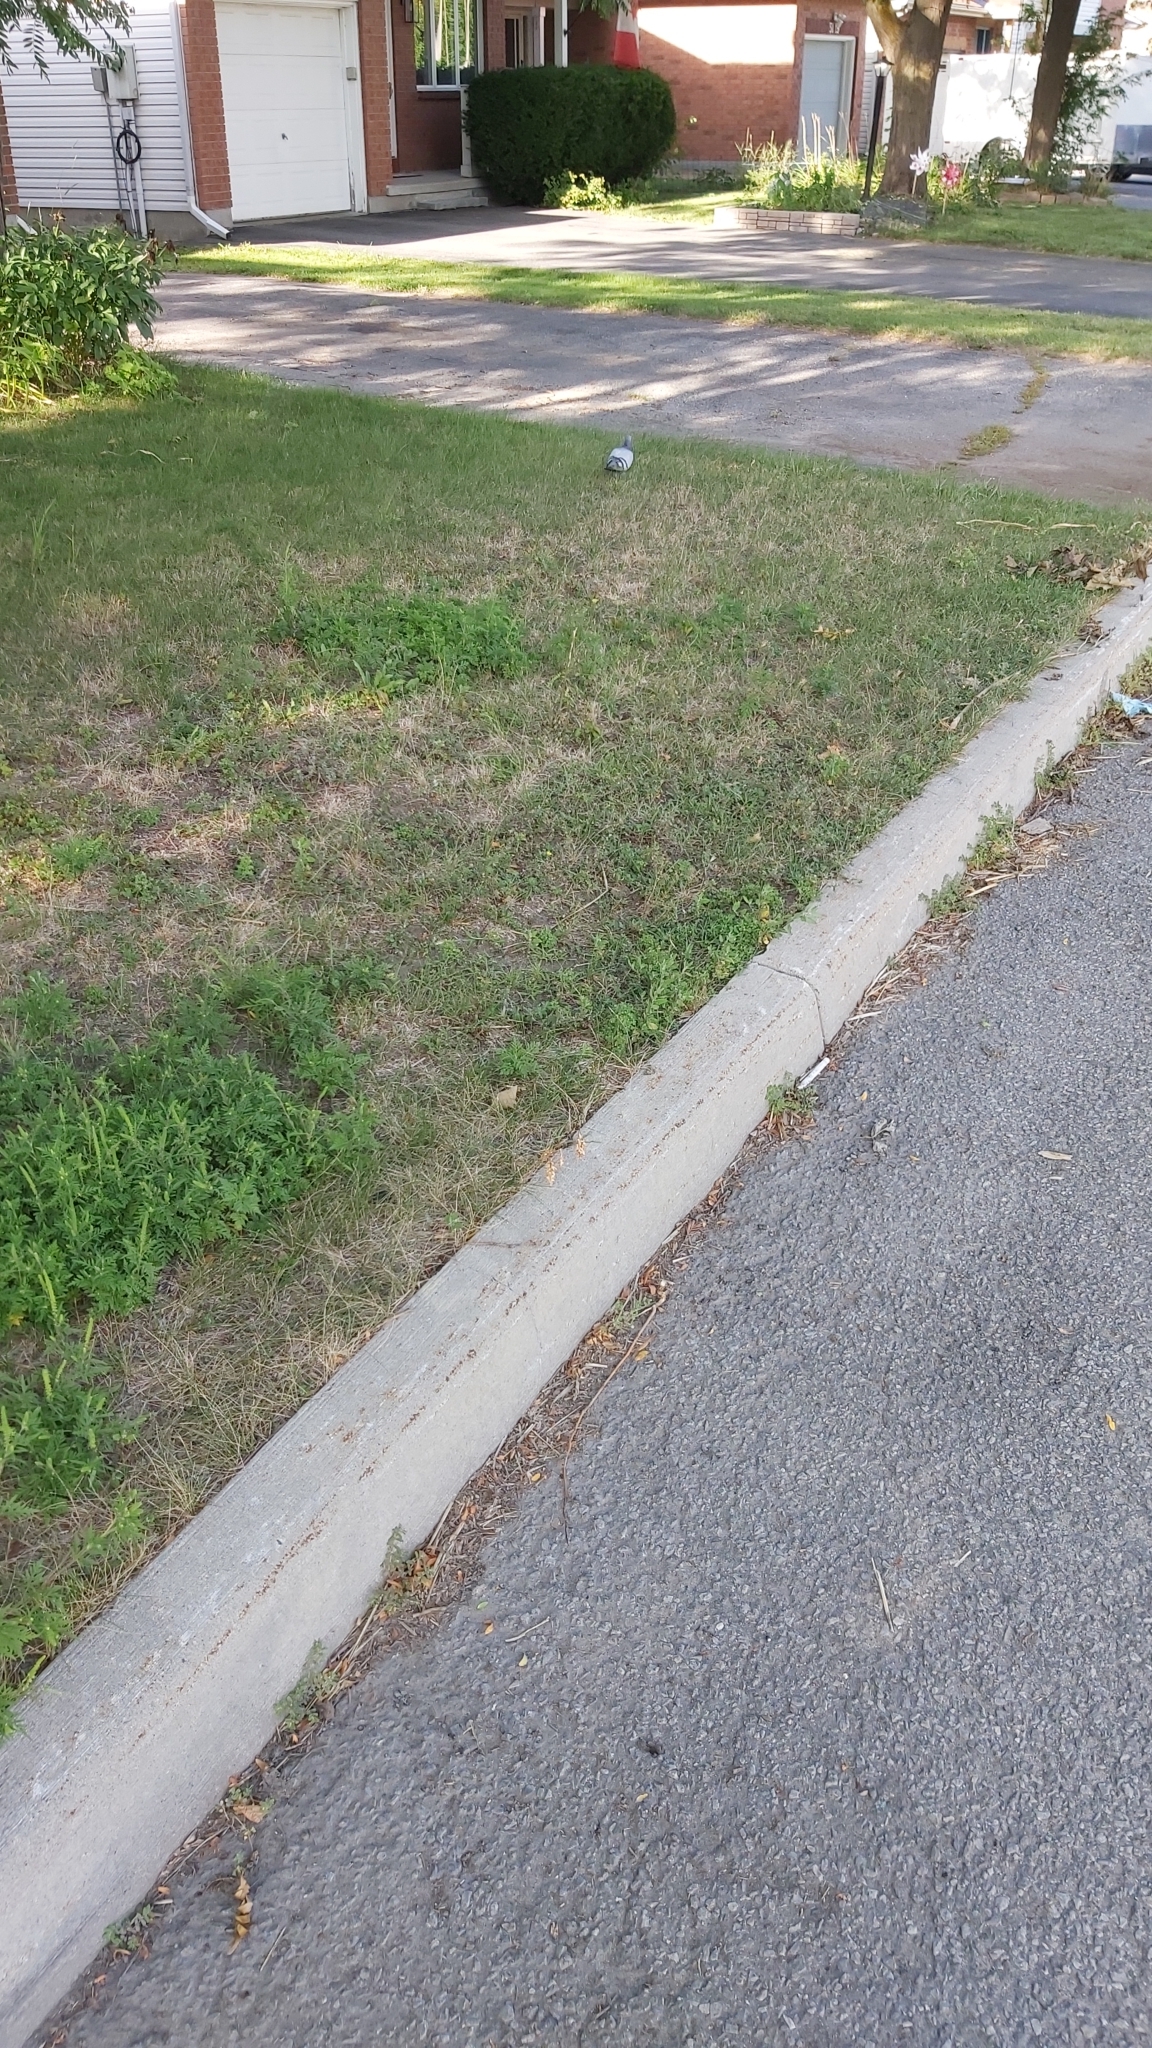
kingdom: Animalia
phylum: Chordata
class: Aves
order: Columbiformes
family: Columbidae
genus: Columba
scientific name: Columba livia
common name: Rock pigeon
